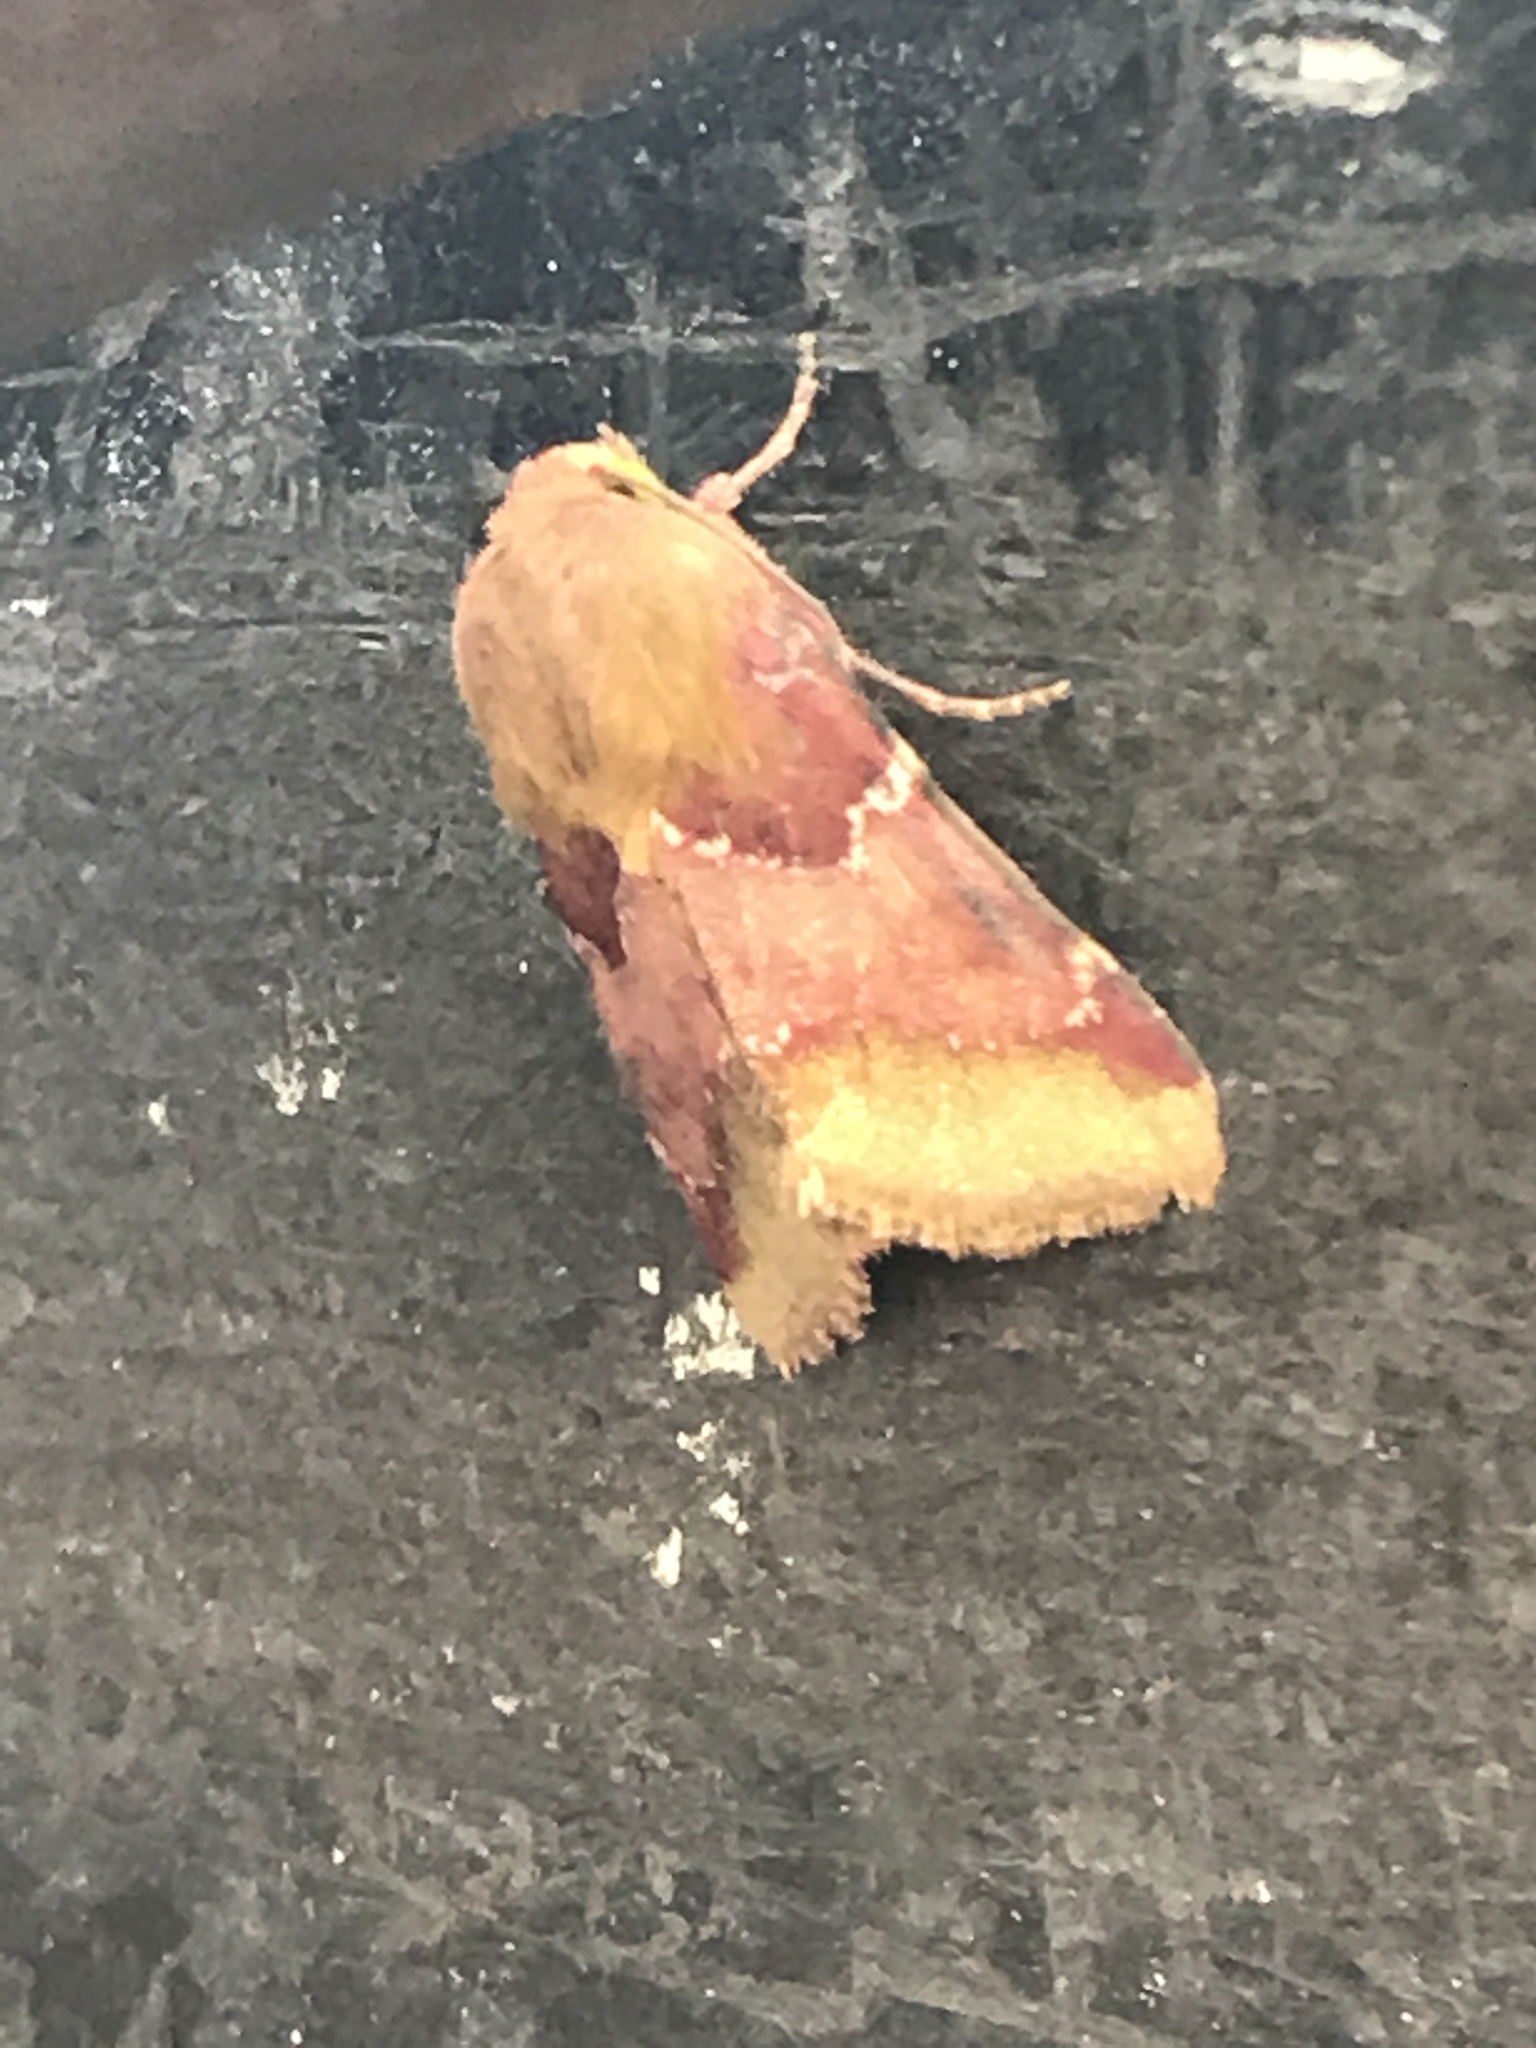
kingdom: Animalia
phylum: Arthropoda
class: Insecta
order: Lepidoptera
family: Noctuidae
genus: Schinia
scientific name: Schinia bina
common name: Bina flower moth
